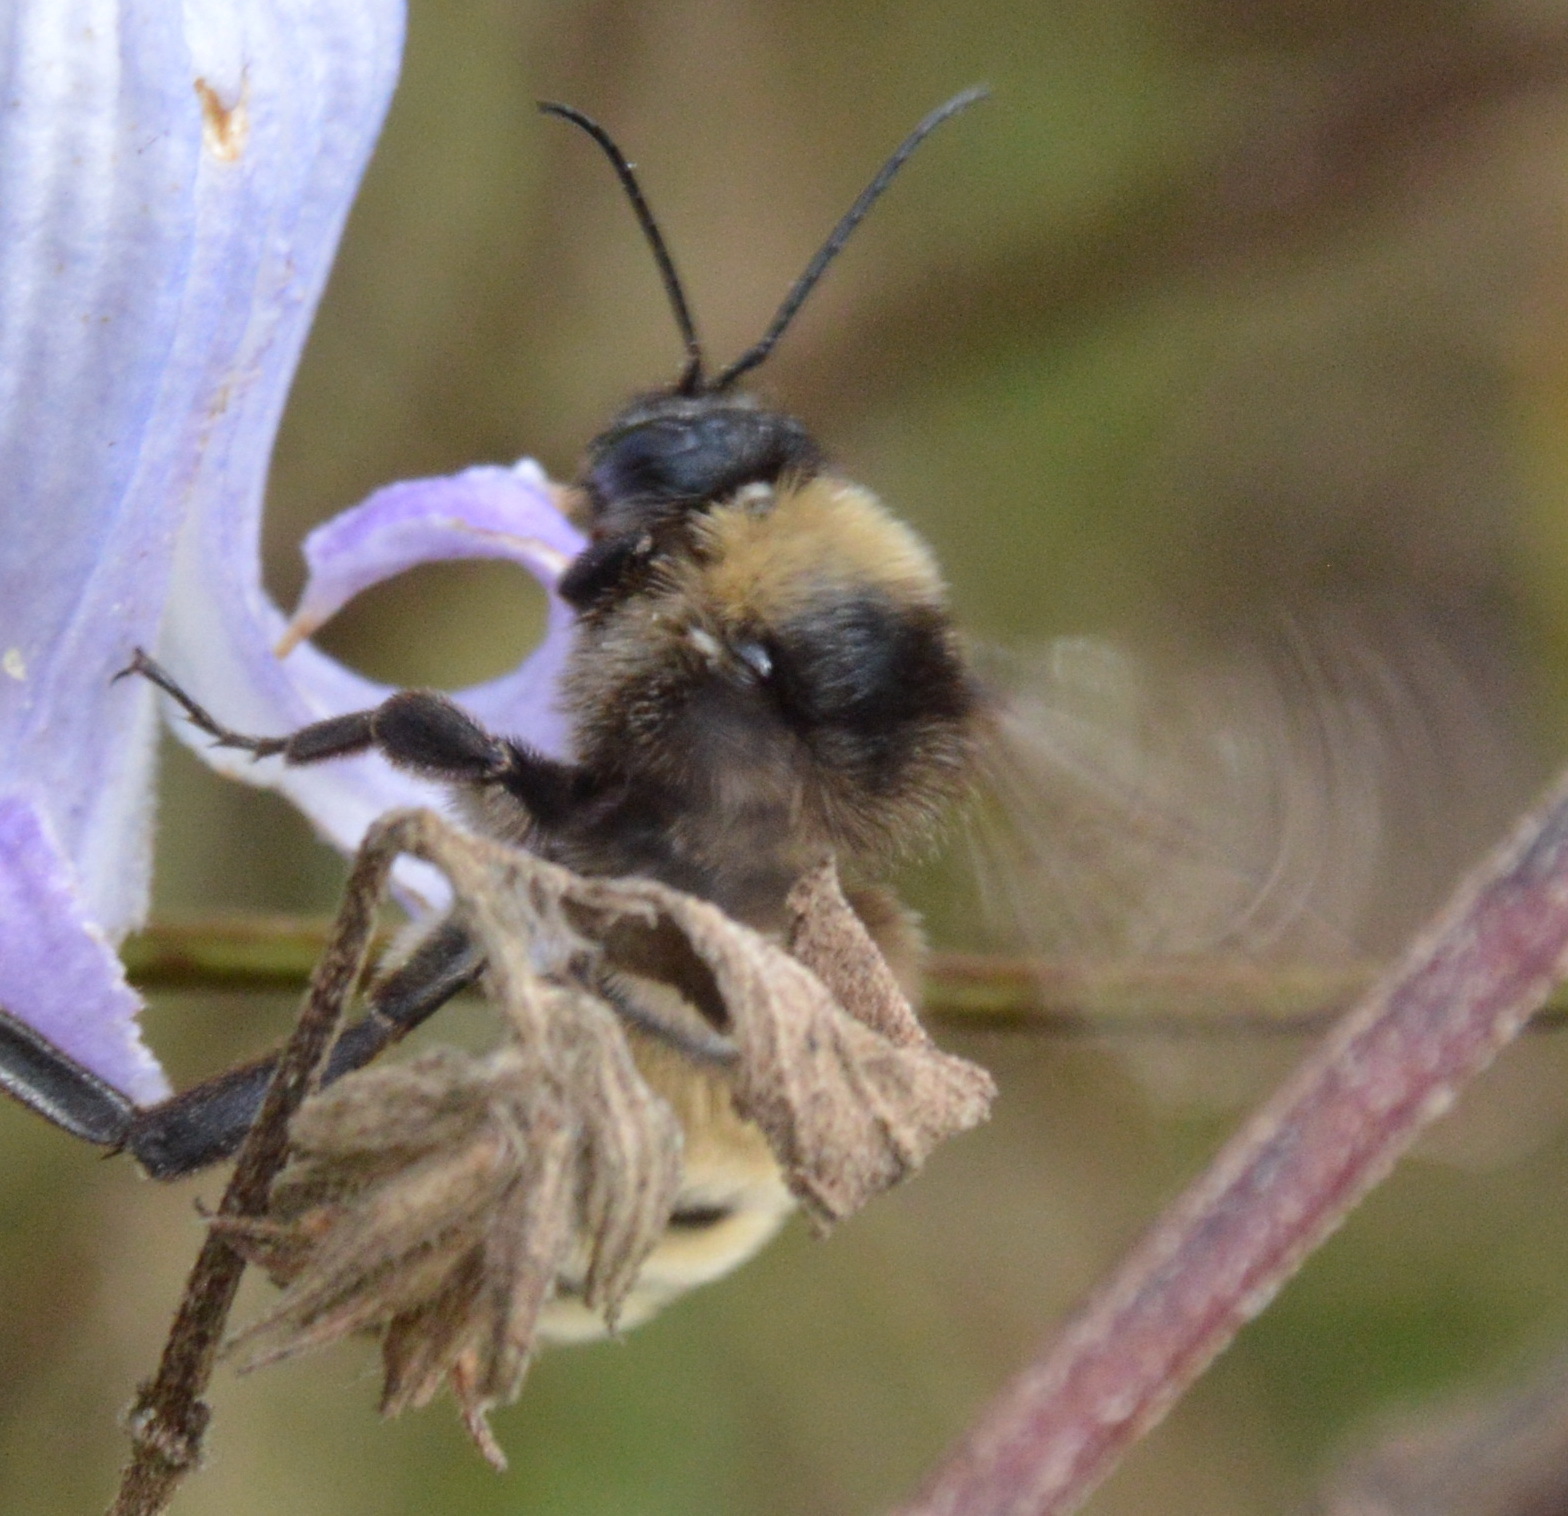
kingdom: Animalia
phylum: Arthropoda
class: Insecta
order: Hymenoptera
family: Apidae
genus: Bombus
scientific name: Bombus pensylvanicus
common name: Bumble bee
